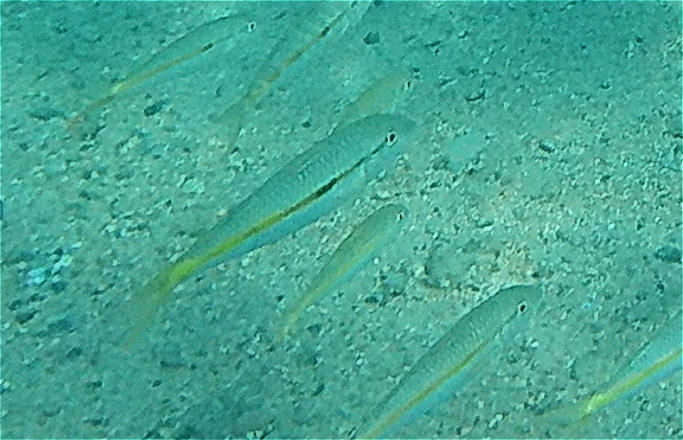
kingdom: Animalia
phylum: Chordata
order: Perciformes
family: Mullidae
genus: Mulloidichthys
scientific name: Mulloidichthys flavolineatus
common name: Yellowstripe goatfish
